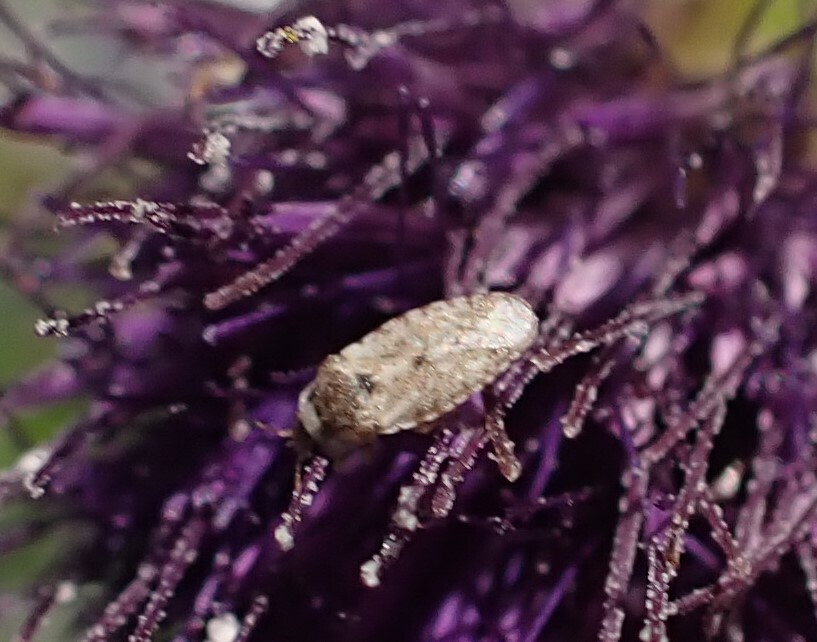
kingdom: Animalia
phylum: Arthropoda
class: Insecta
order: Hemiptera
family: Piesmatidae
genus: Parapiesma
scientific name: Parapiesma cinereum
